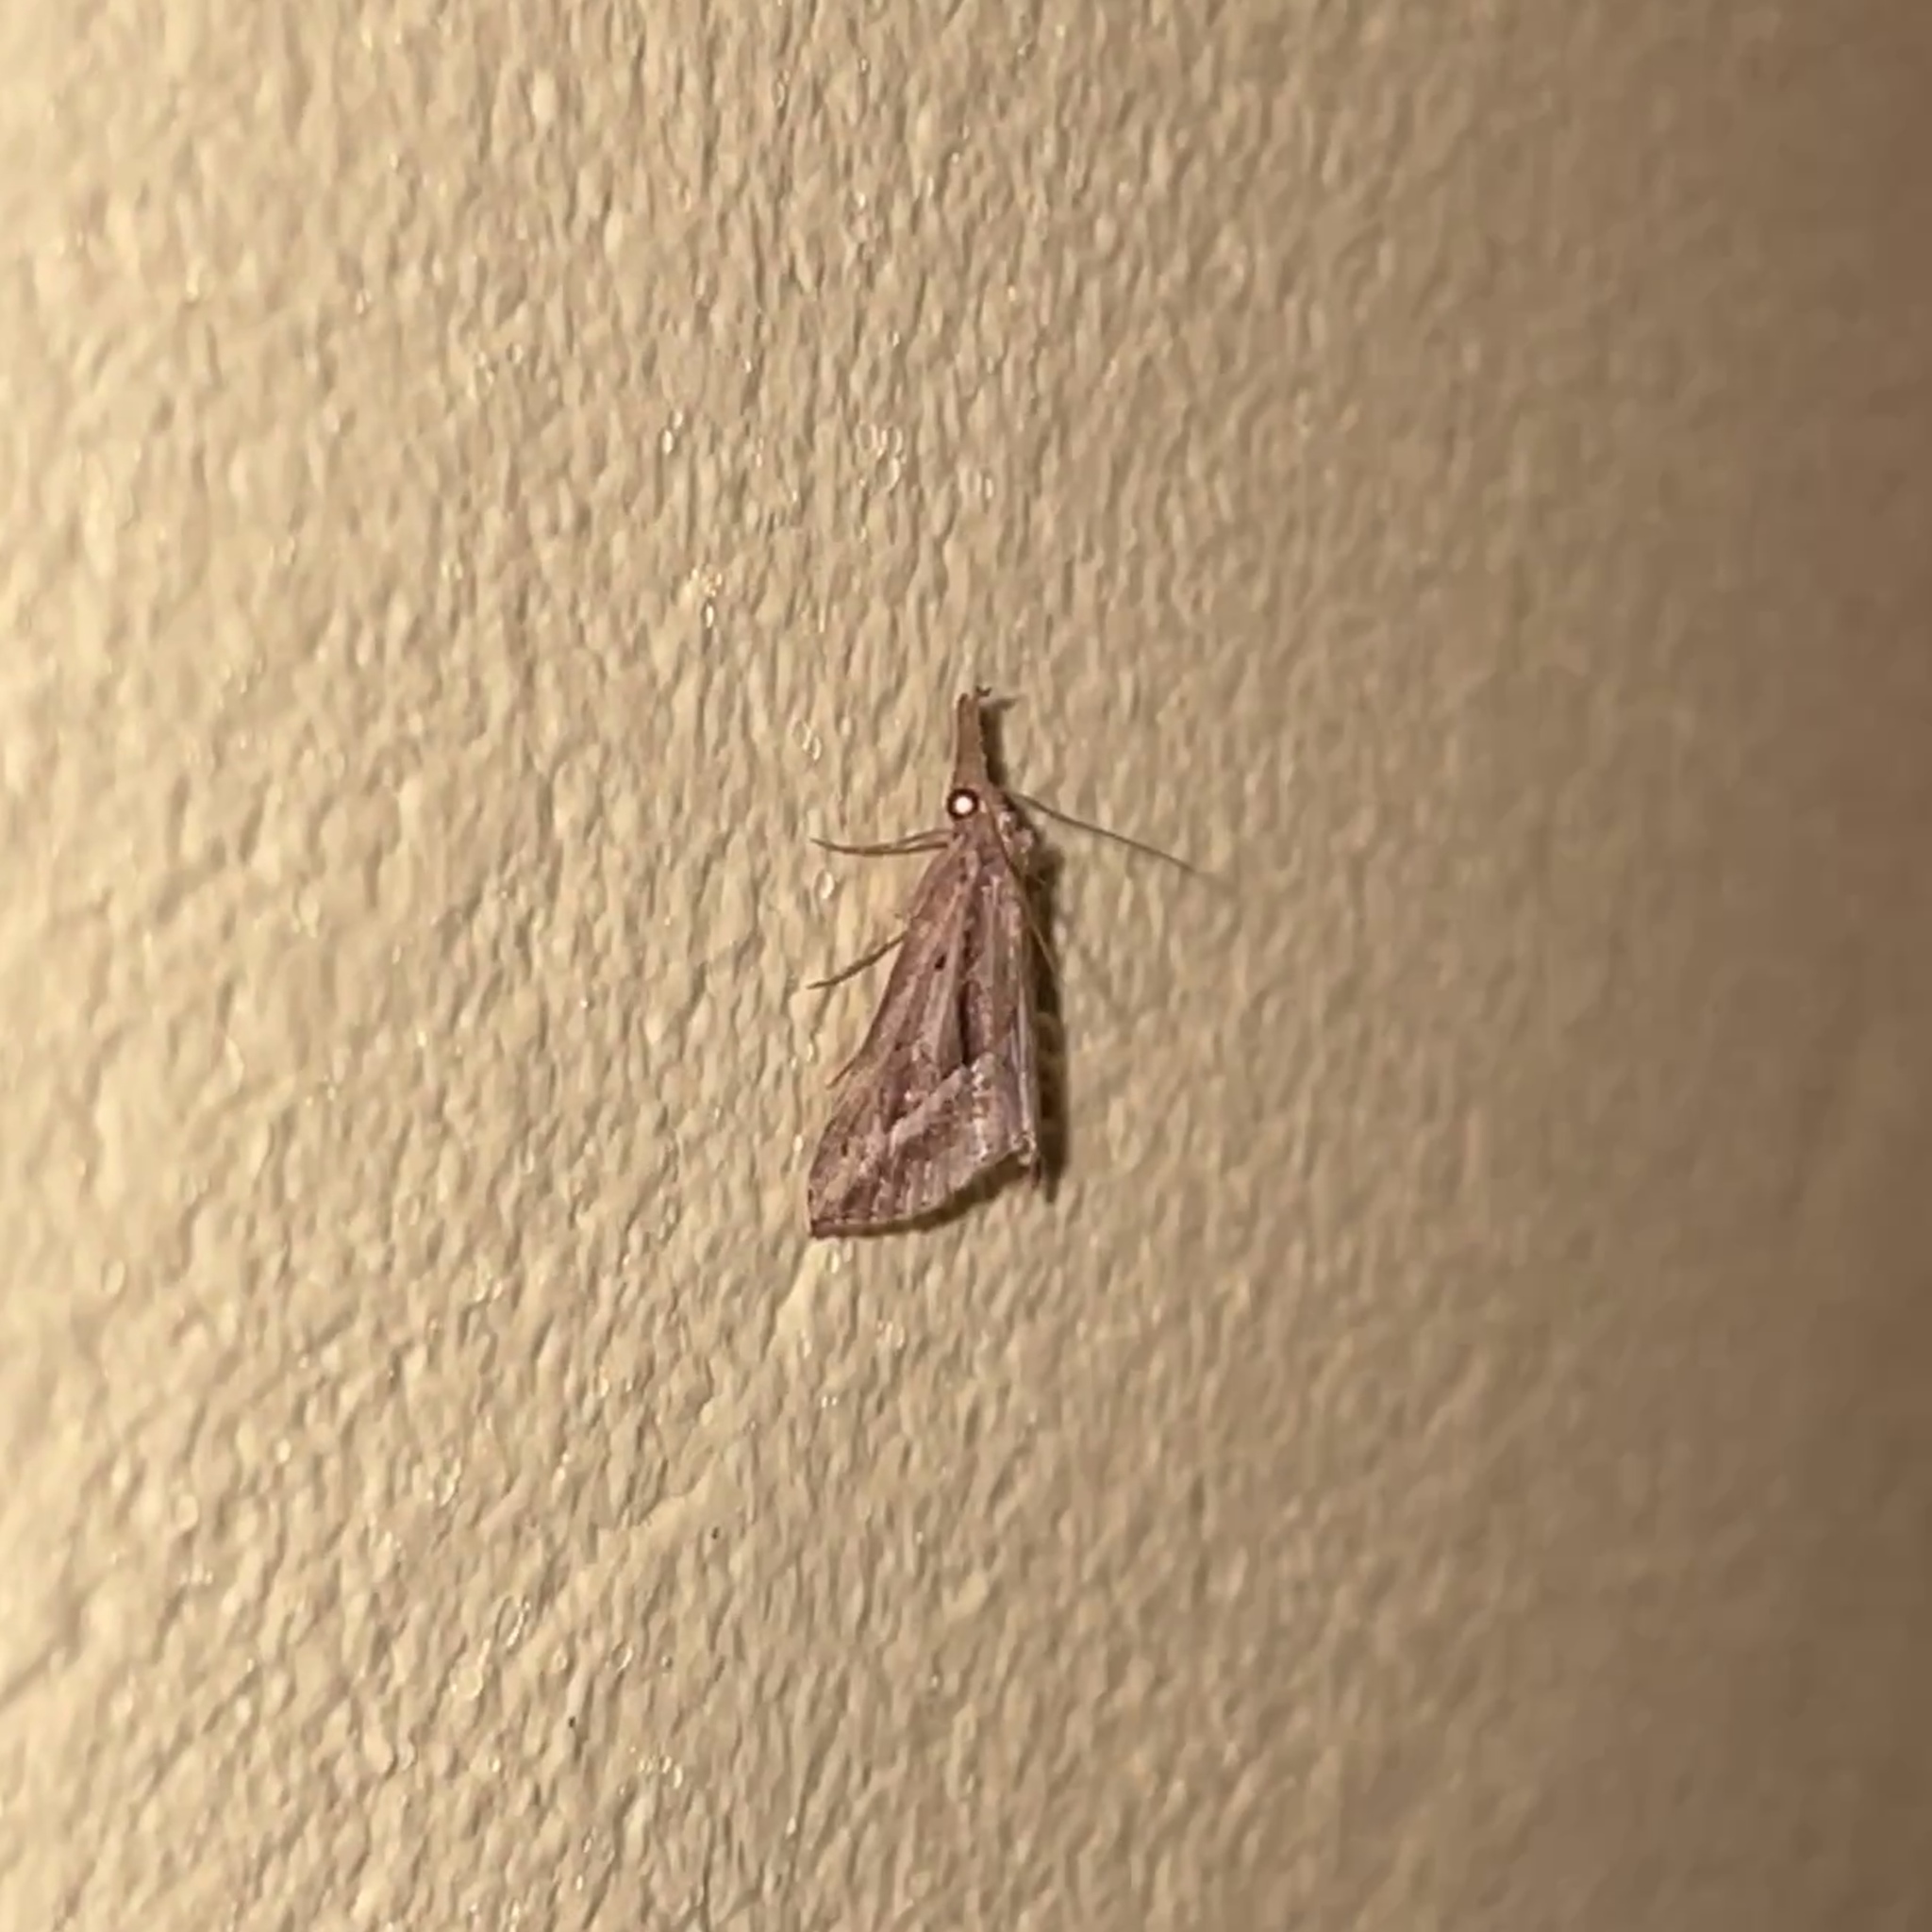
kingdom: Animalia
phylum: Arthropoda
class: Insecta
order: Lepidoptera
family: Erebidae
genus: Hypena
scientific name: Hypena fufialis
